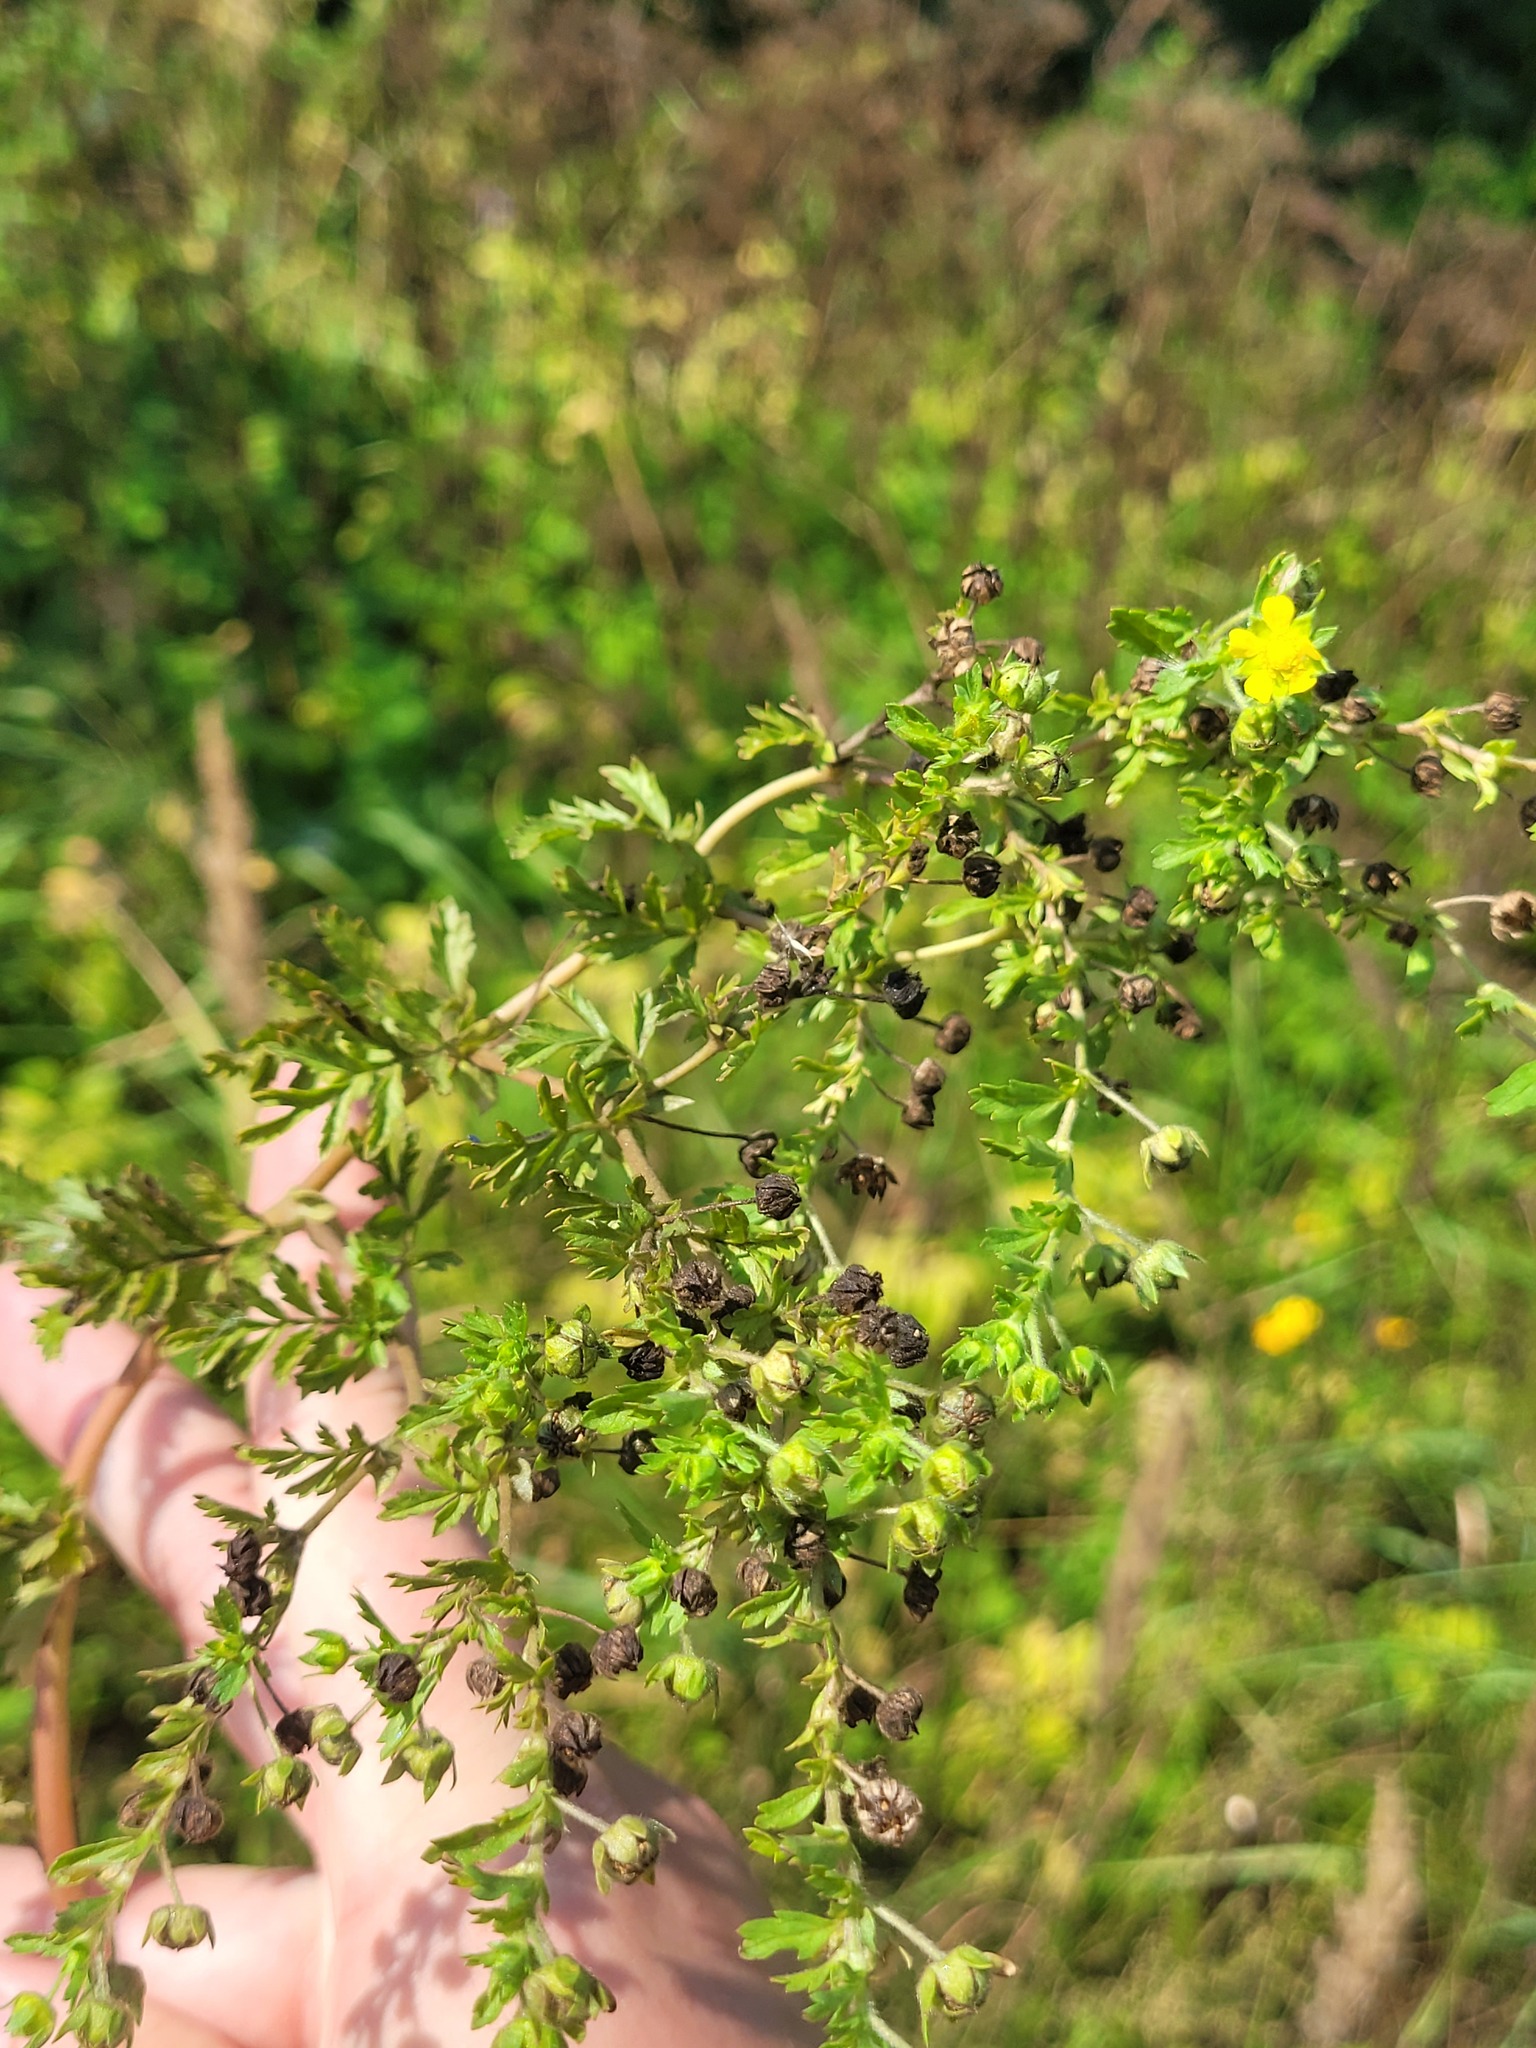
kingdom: Plantae
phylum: Tracheophyta
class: Magnoliopsida
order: Rosales
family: Rosaceae
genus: Potentilla
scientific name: Potentilla supina
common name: Prostrate cinquefoil
